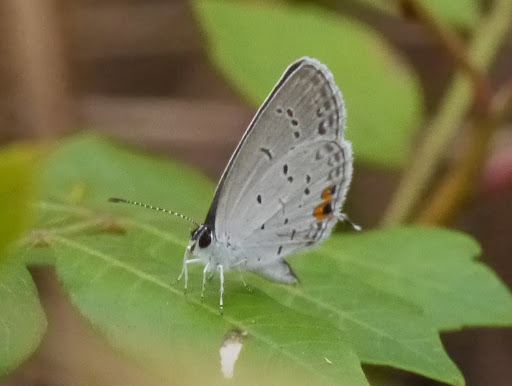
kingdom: Animalia
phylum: Arthropoda
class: Insecta
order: Lepidoptera
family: Lycaenidae
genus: Elkalyce
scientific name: Elkalyce comyntas
